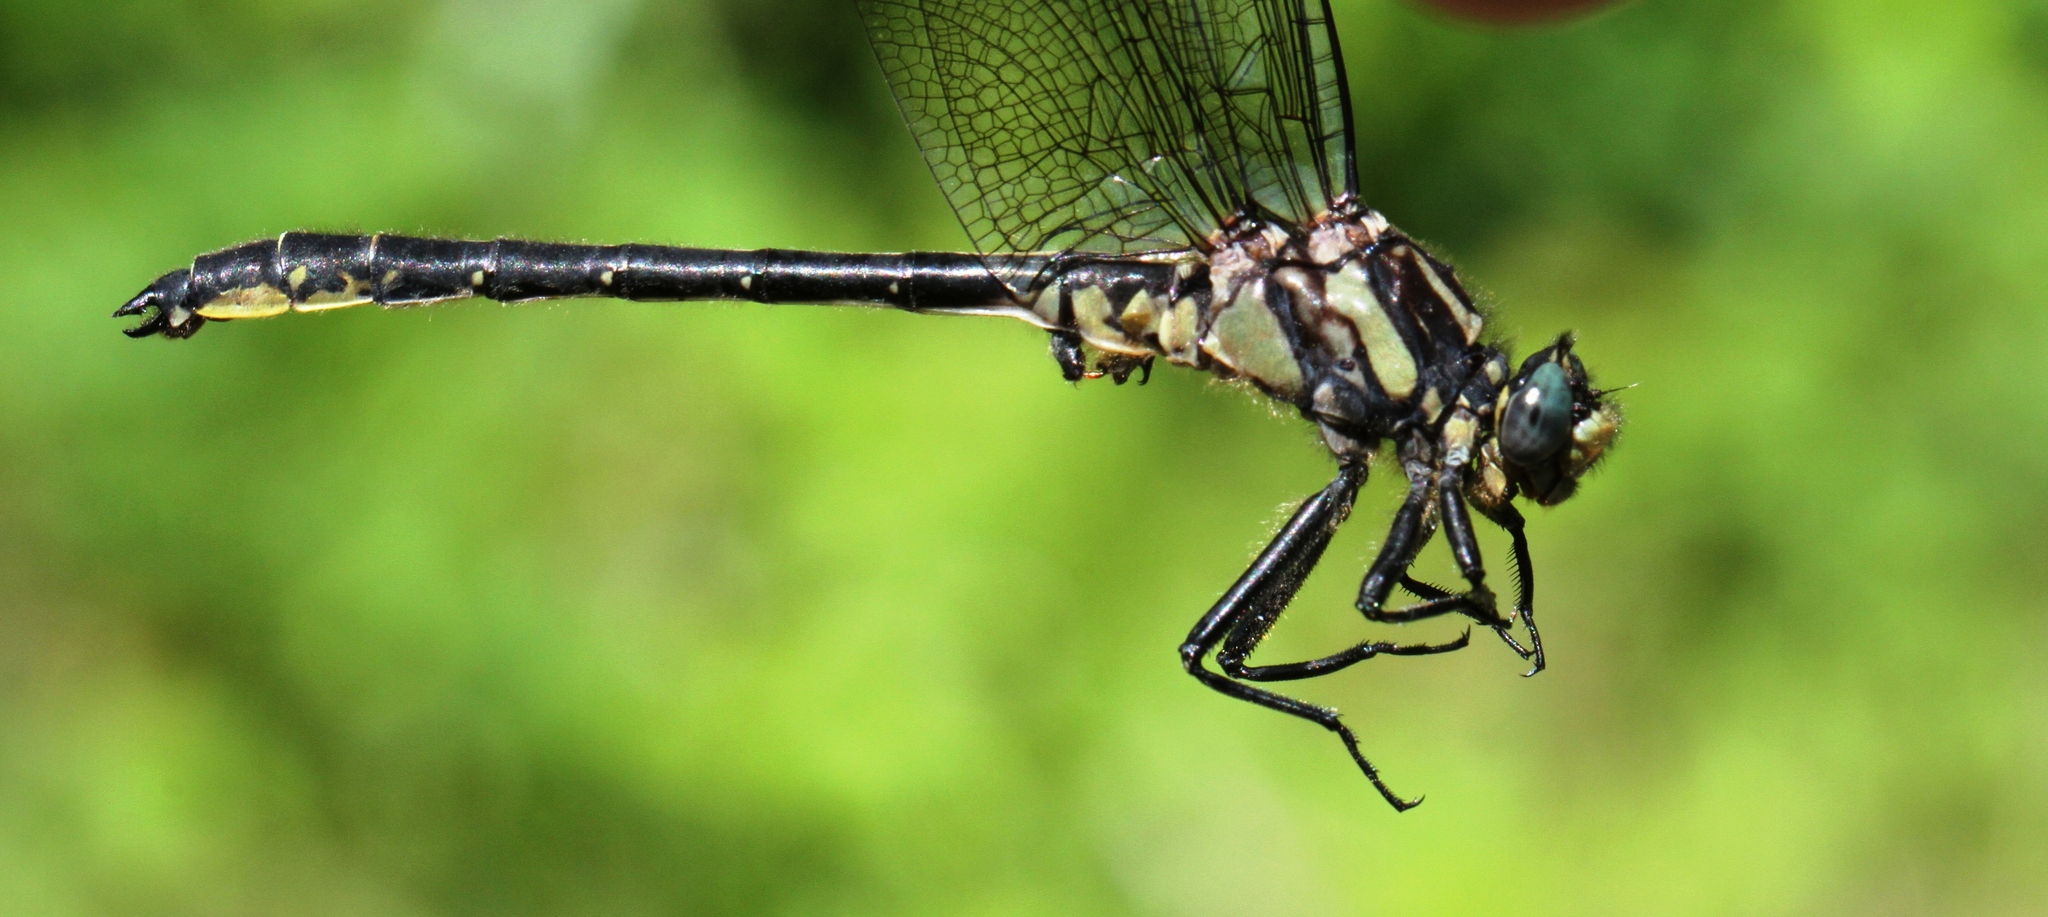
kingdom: Animalia
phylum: Arthropoda
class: Insecta
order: Odonata
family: Gomphidae
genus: Phanogomphus
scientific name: Phanogomphus descriptus
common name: Harpoon clubtail
